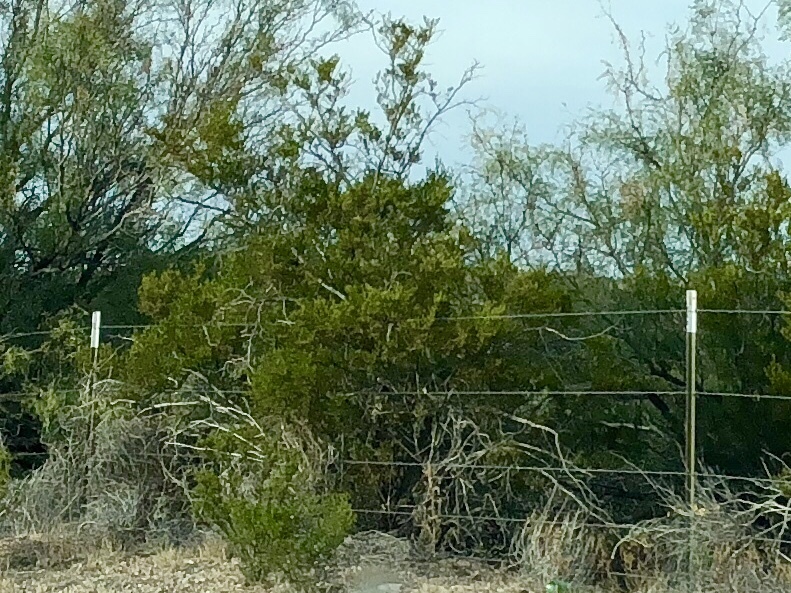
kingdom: Plantae
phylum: Tracheophyta
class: Magnoliopsida
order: Zygophyllales
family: Zygophyllaceae
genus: Larrea
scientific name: Larrea tridentata
